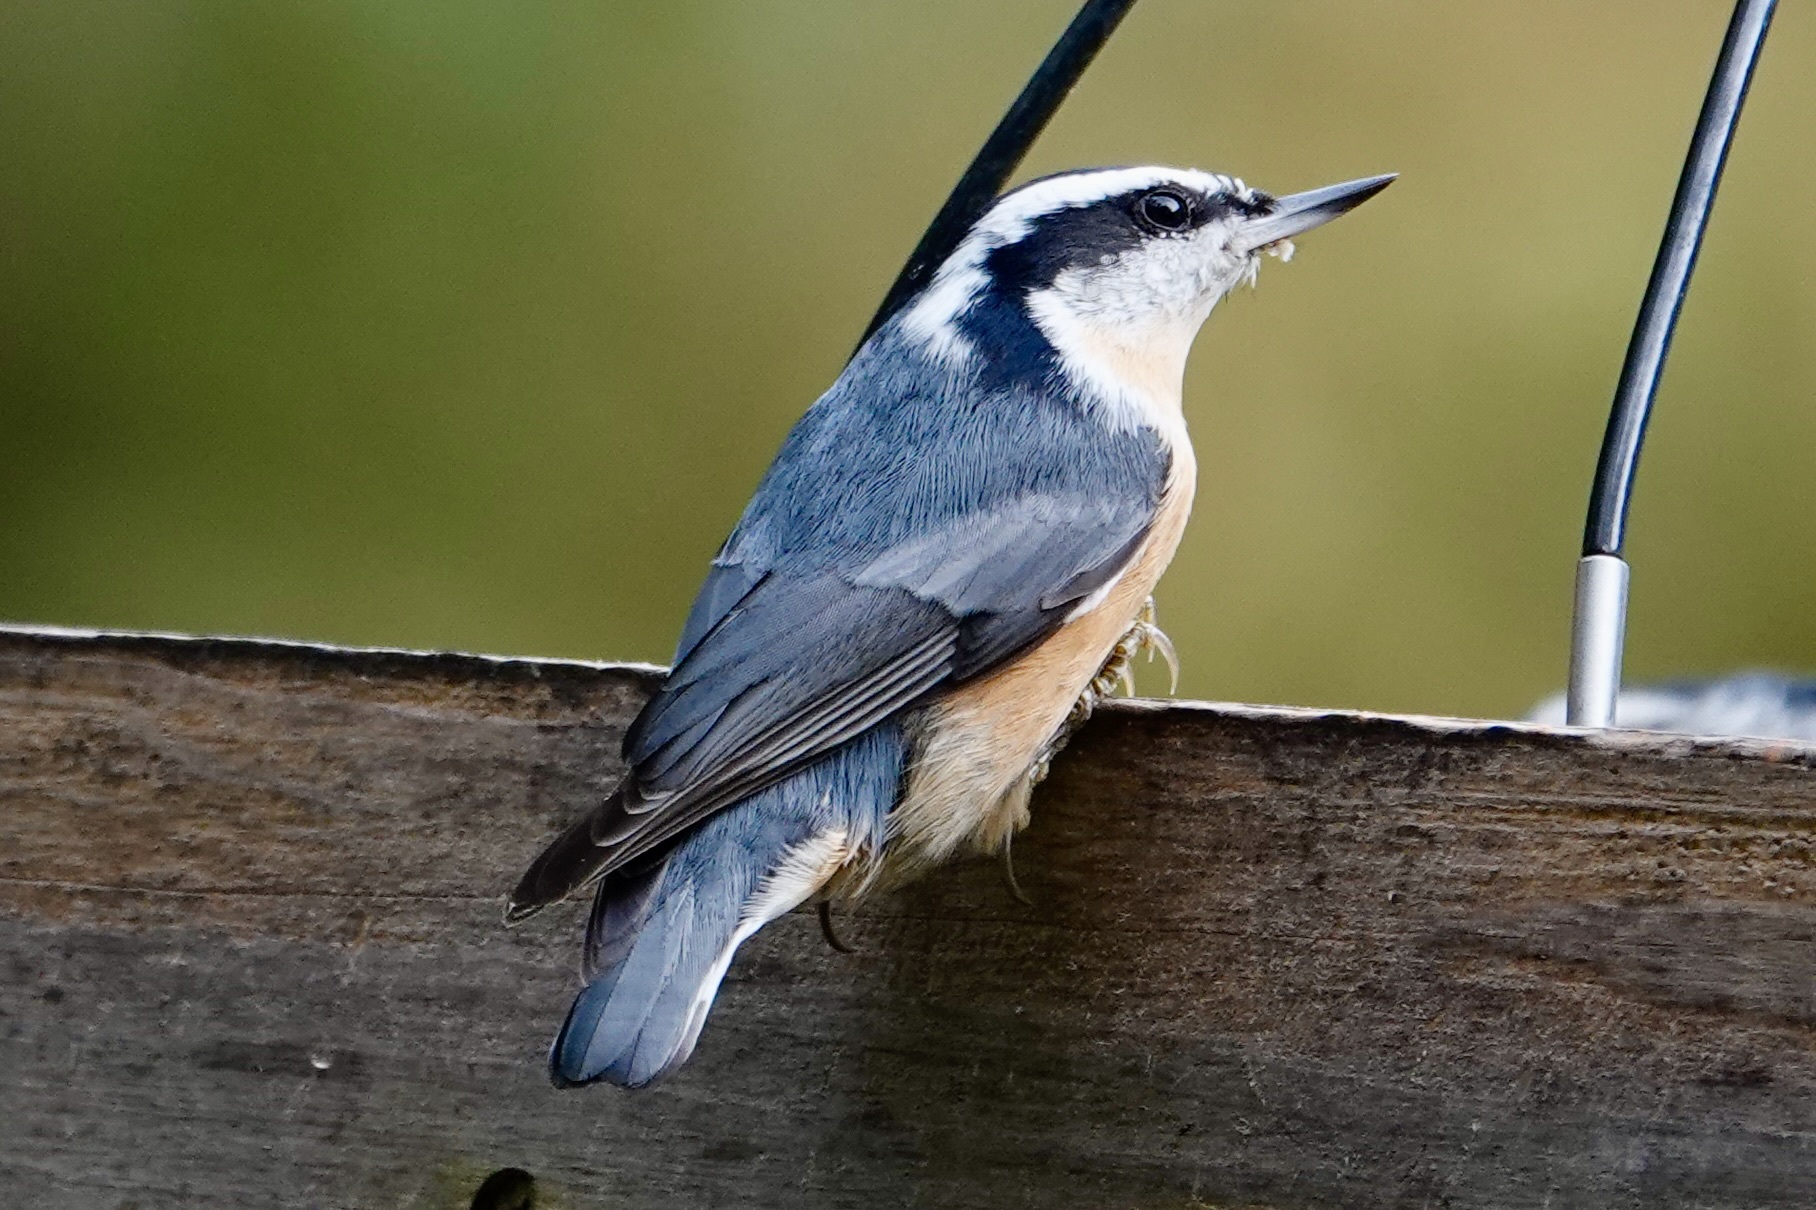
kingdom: Animalia
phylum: Chordata
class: Aves
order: Passeriformes
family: Sittidae
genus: Sitta
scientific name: Sitta canadensis
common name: Red-breasted nuthatch
